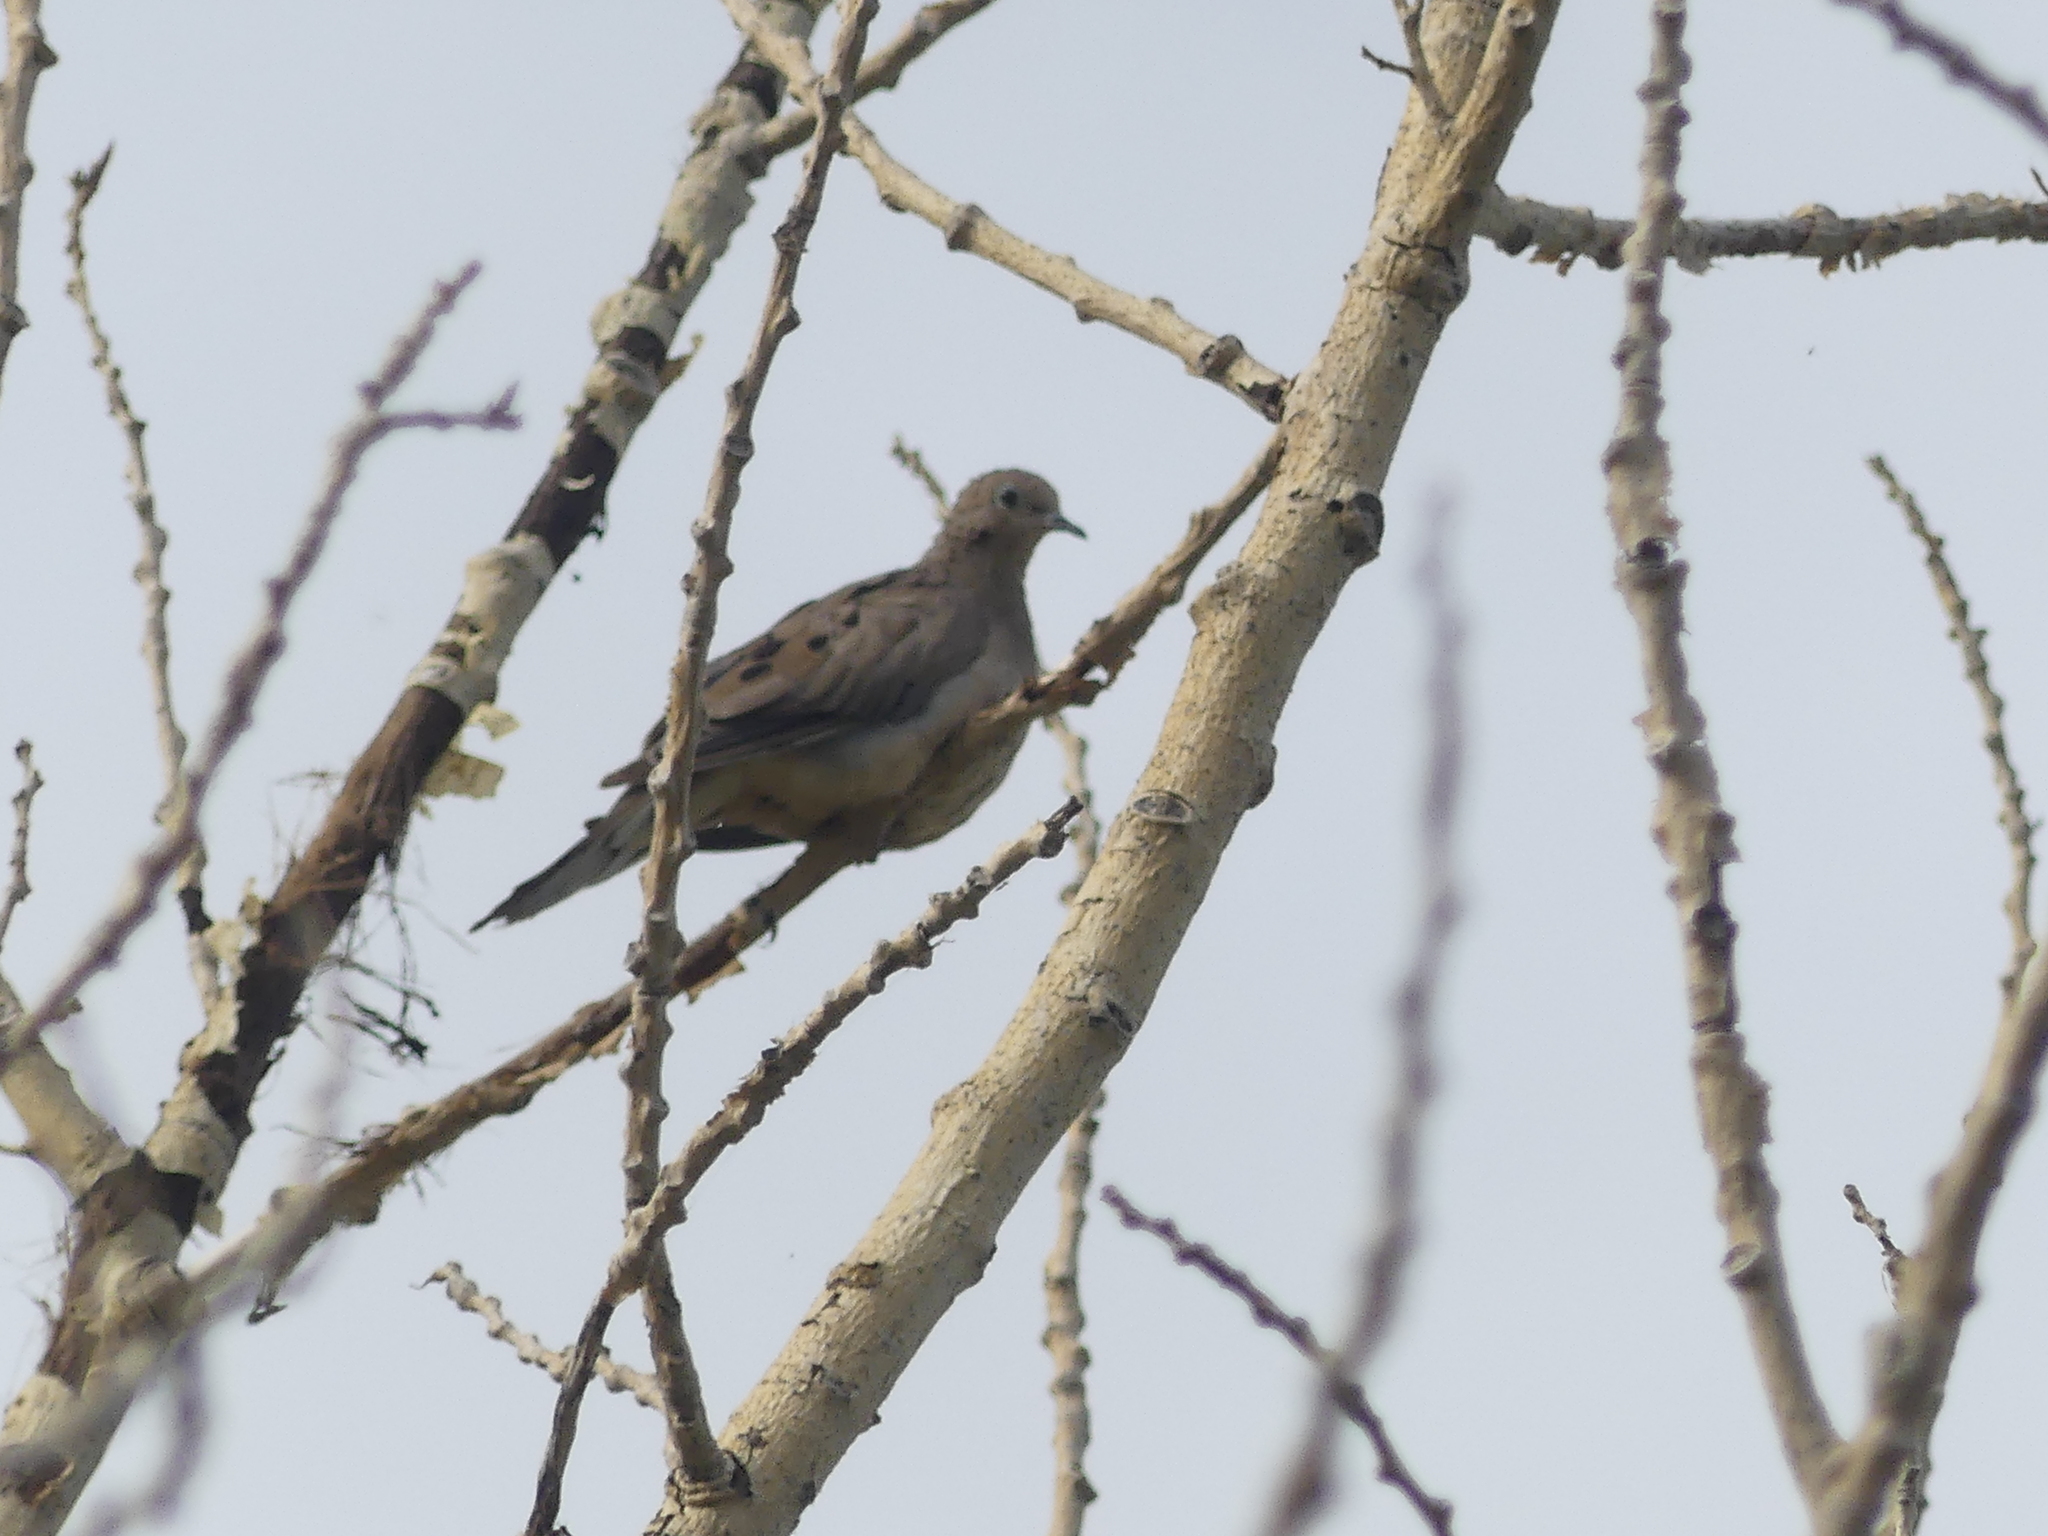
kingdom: Animalia
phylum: Chordata
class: Aves
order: Columbiformes
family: Columbidae
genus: Zenaida
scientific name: Zenaida macroura
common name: Mourning dove
